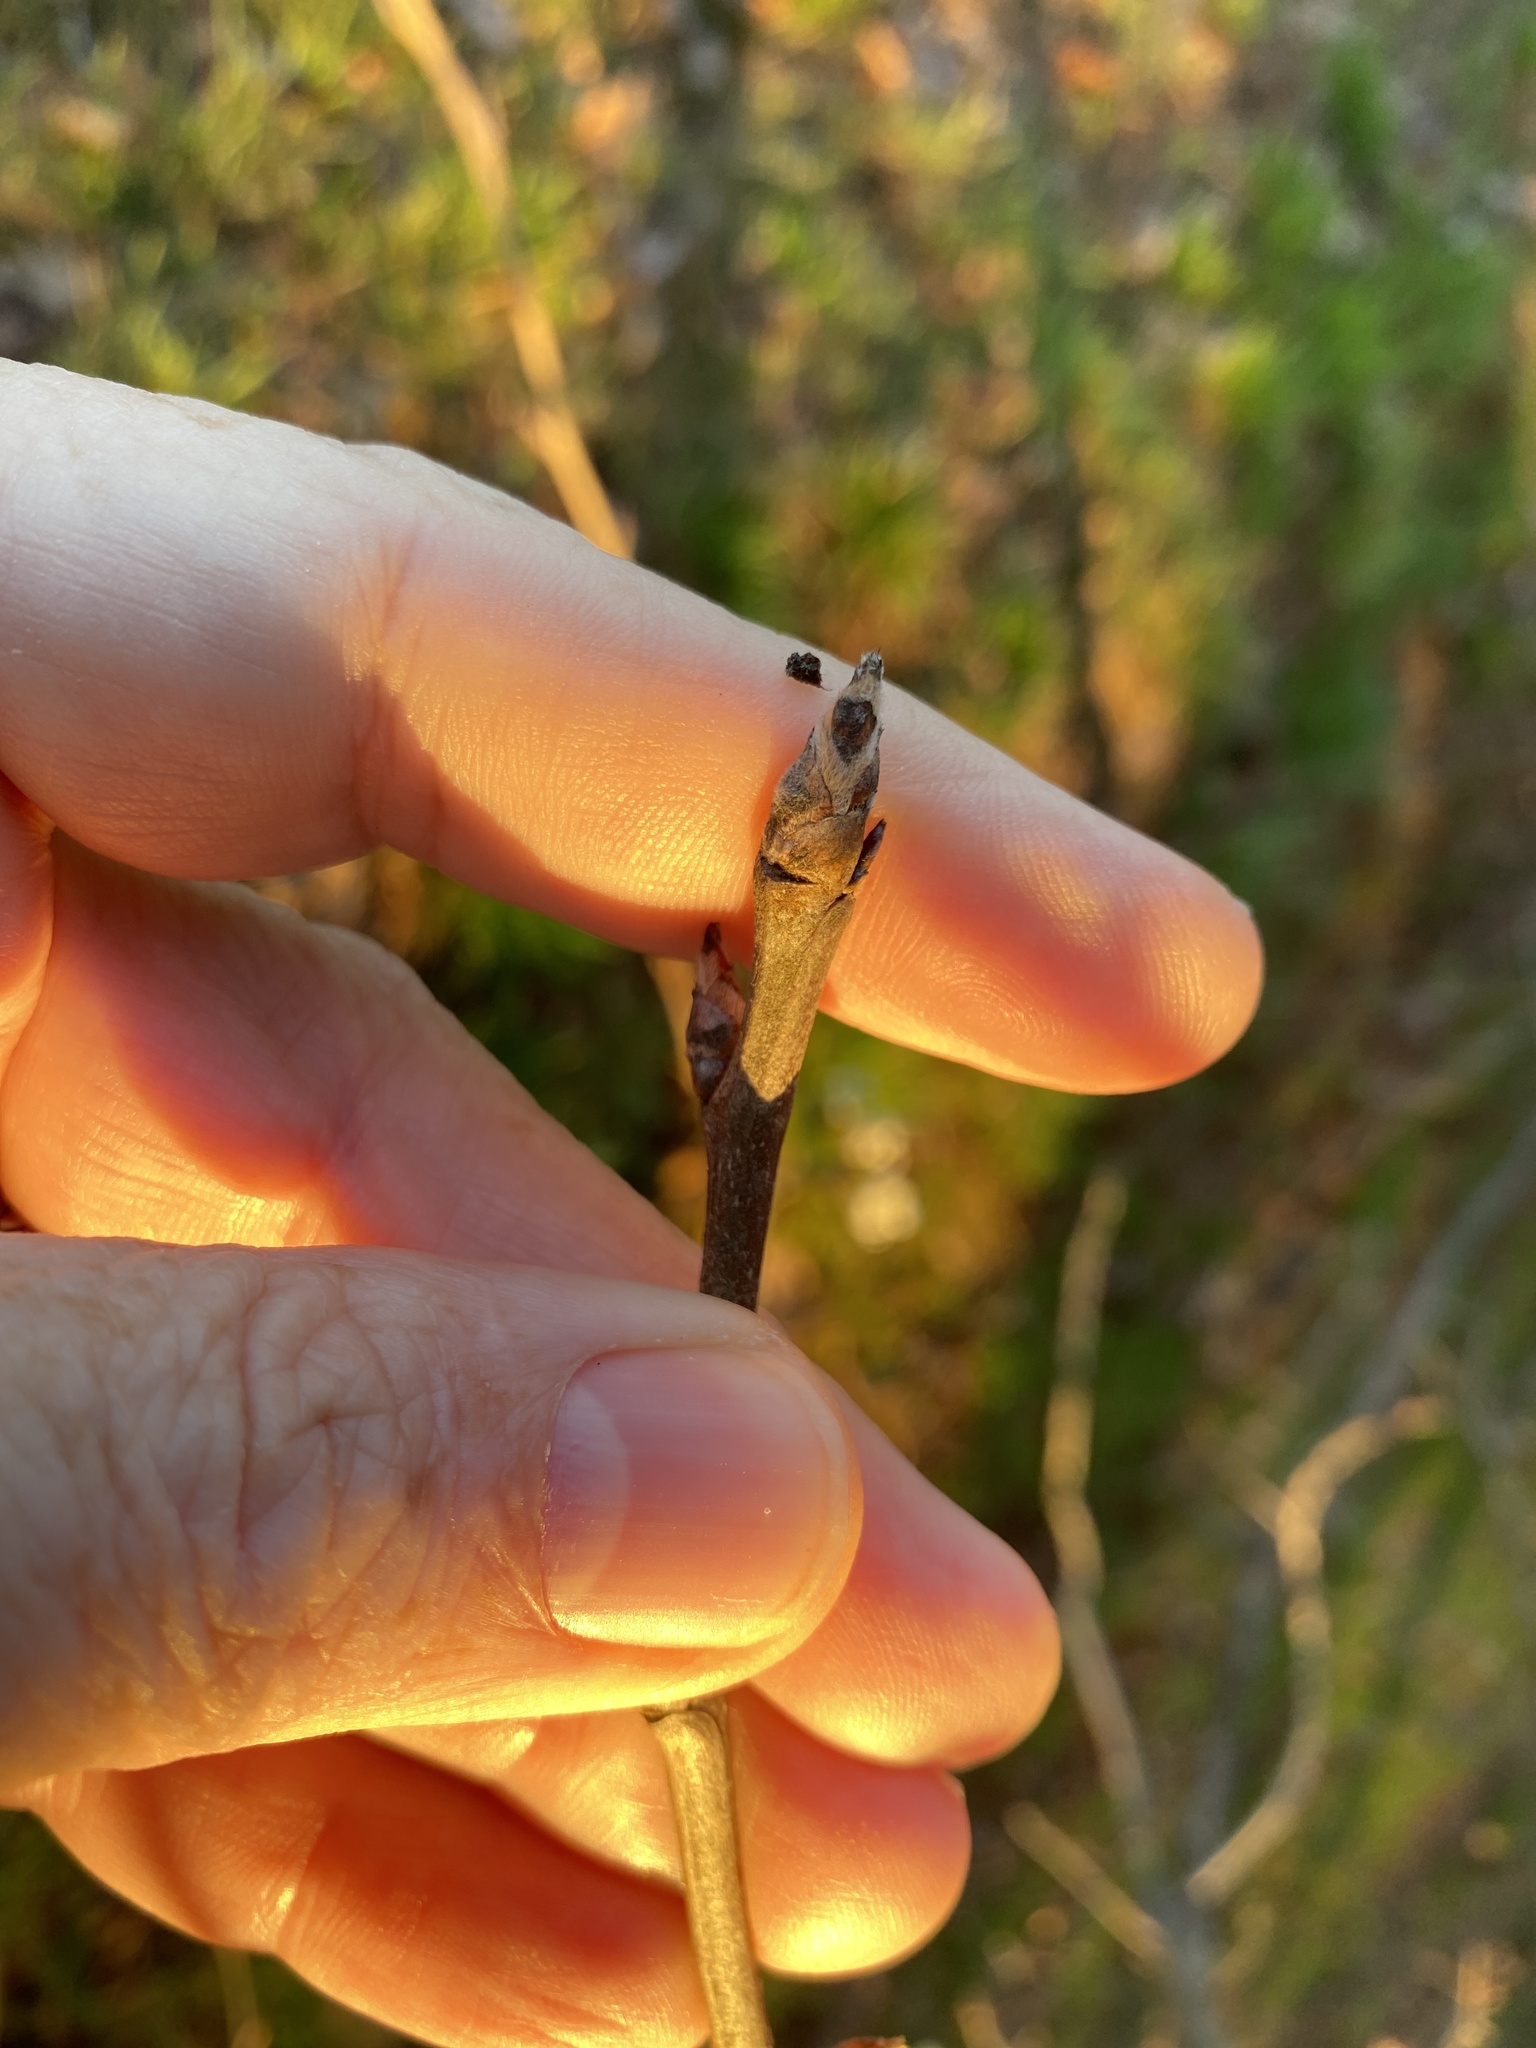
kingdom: Plantae
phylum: Tracheophyta
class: Magnoliopsida
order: Rosales
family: Rosaceae
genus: Pyrus
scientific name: Pyrus calleryana
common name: Callery pear
